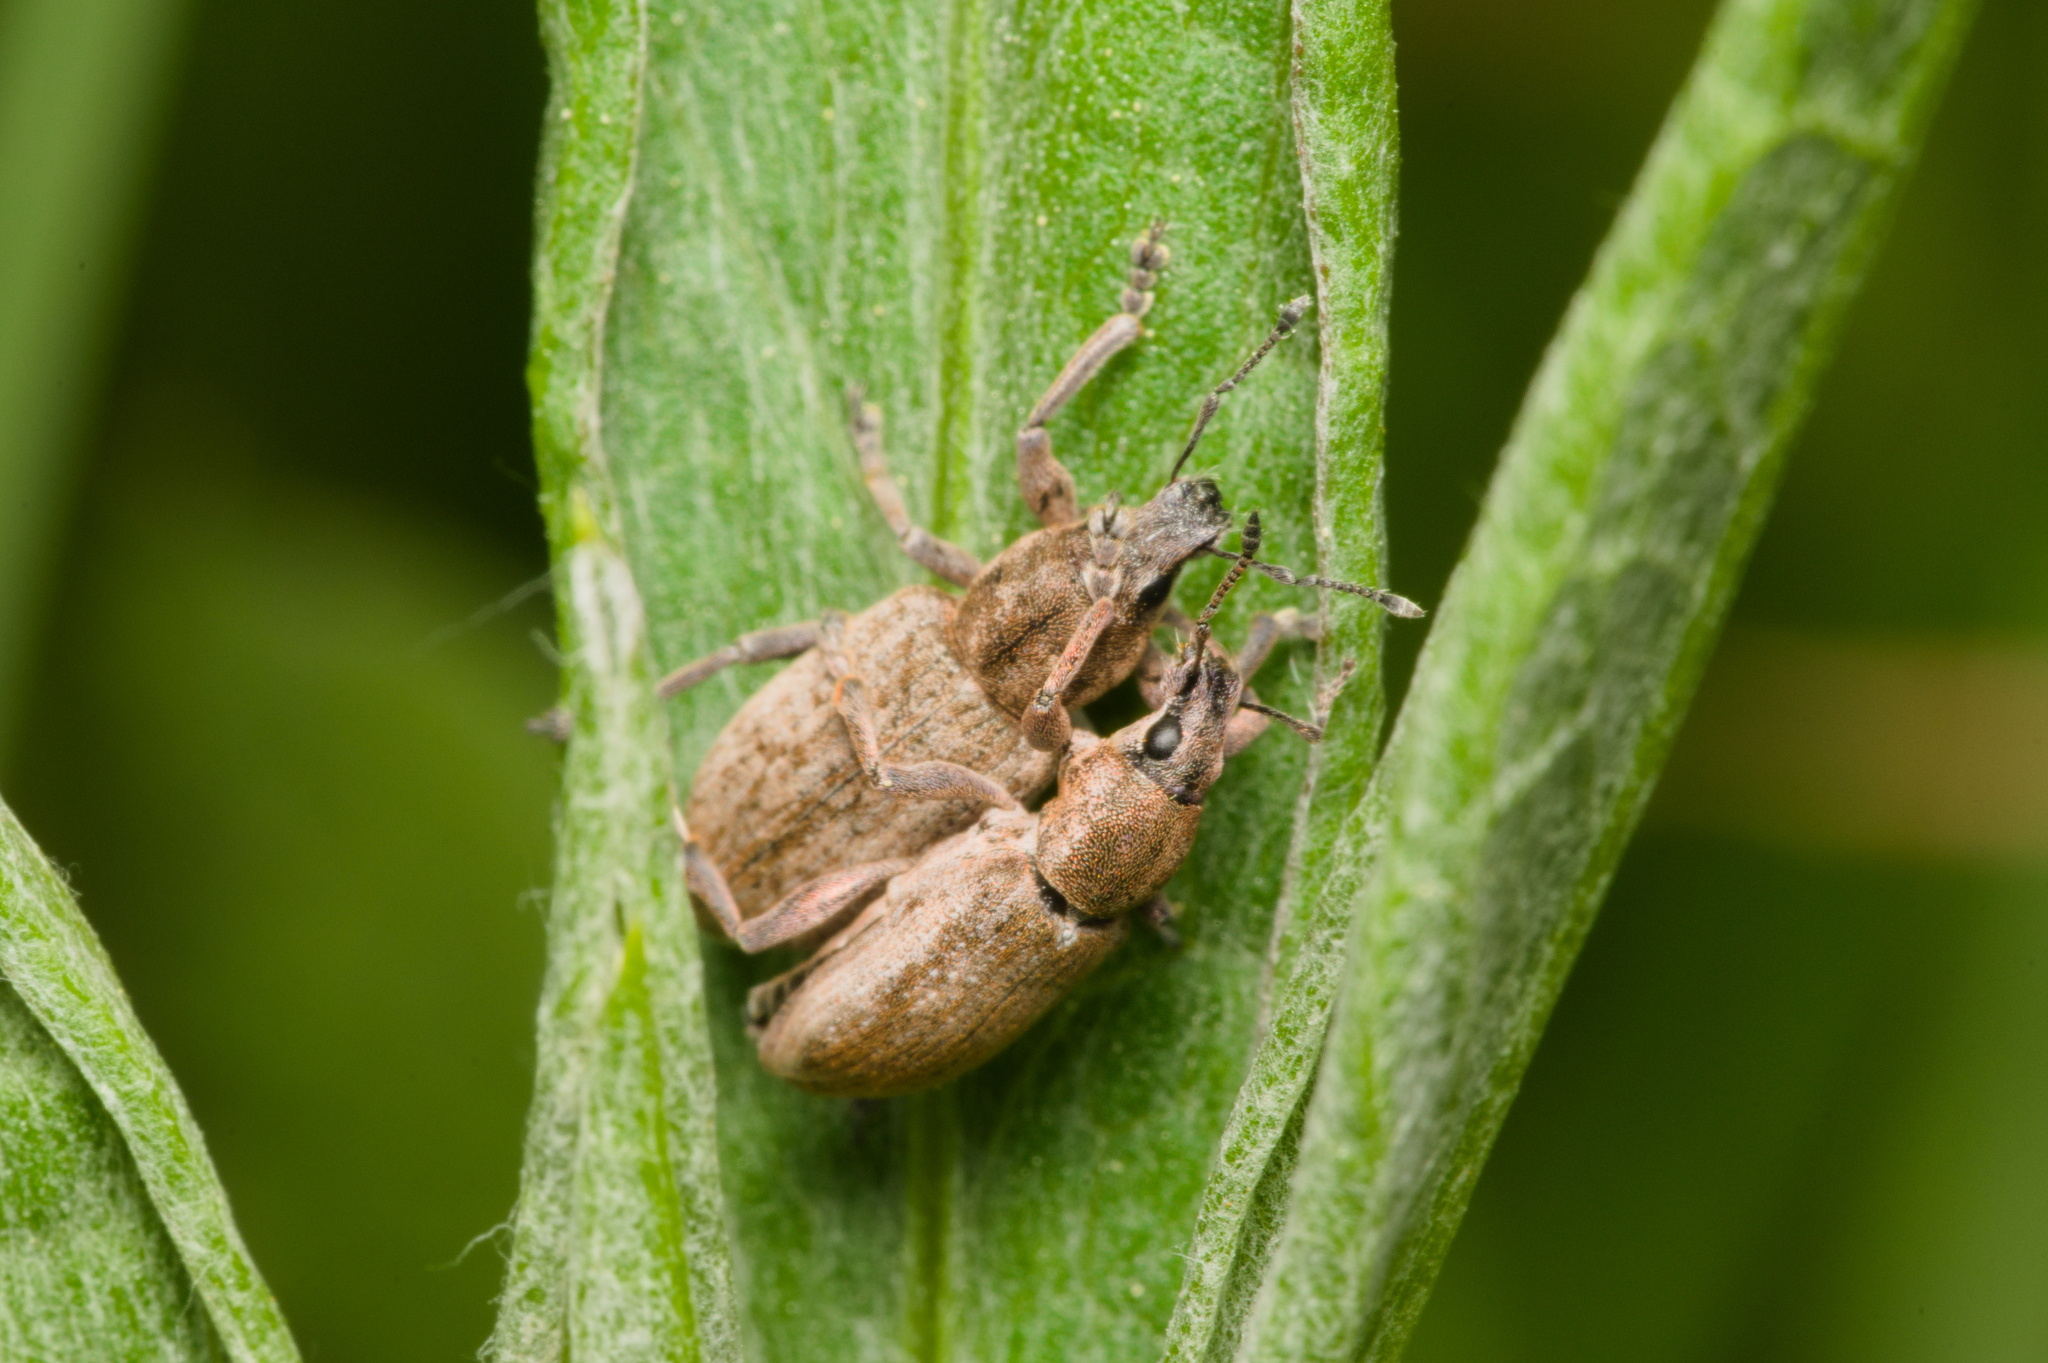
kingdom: Animalia
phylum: Arthropoda
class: Insecta
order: Coleoptera
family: Curculionidae
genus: Tanymecus
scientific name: Tanymecus palliatus
